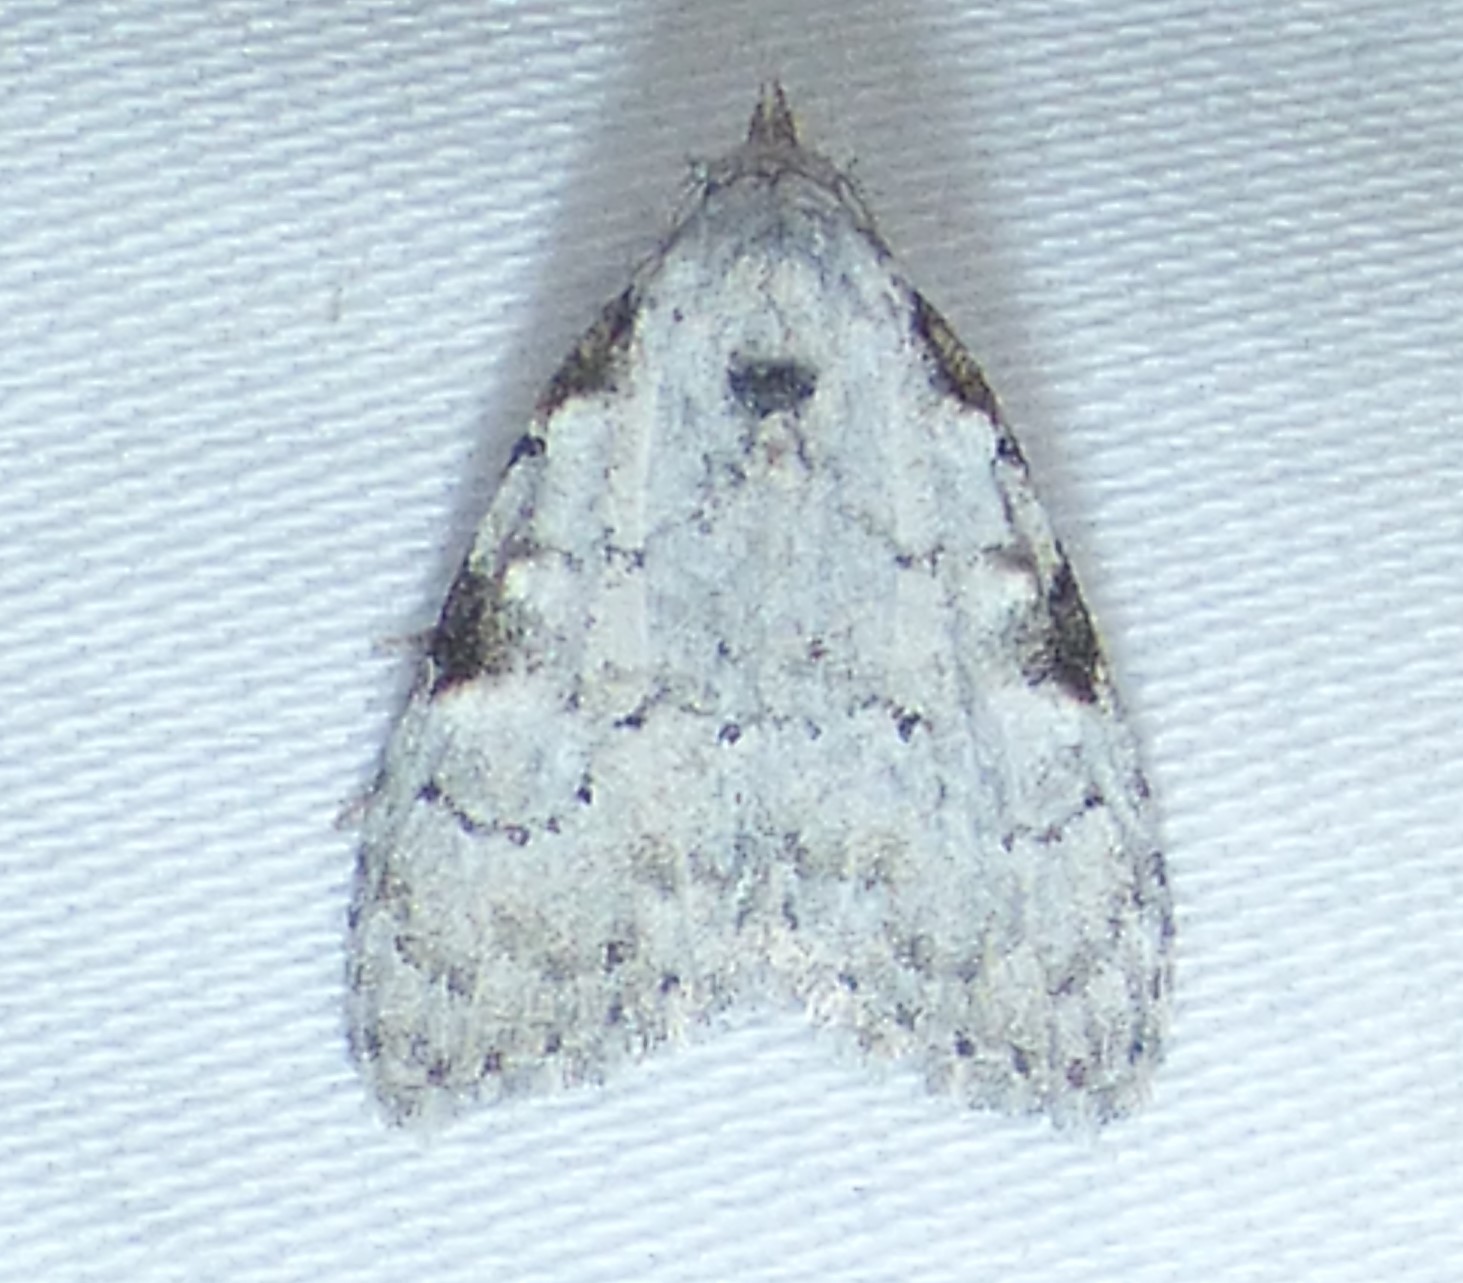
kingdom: Animalia
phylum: Arthropoda
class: Insecta
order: Lepidoptera
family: Nolidae
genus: Meganola
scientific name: Meganola minuscula
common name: Confused meganola moth
